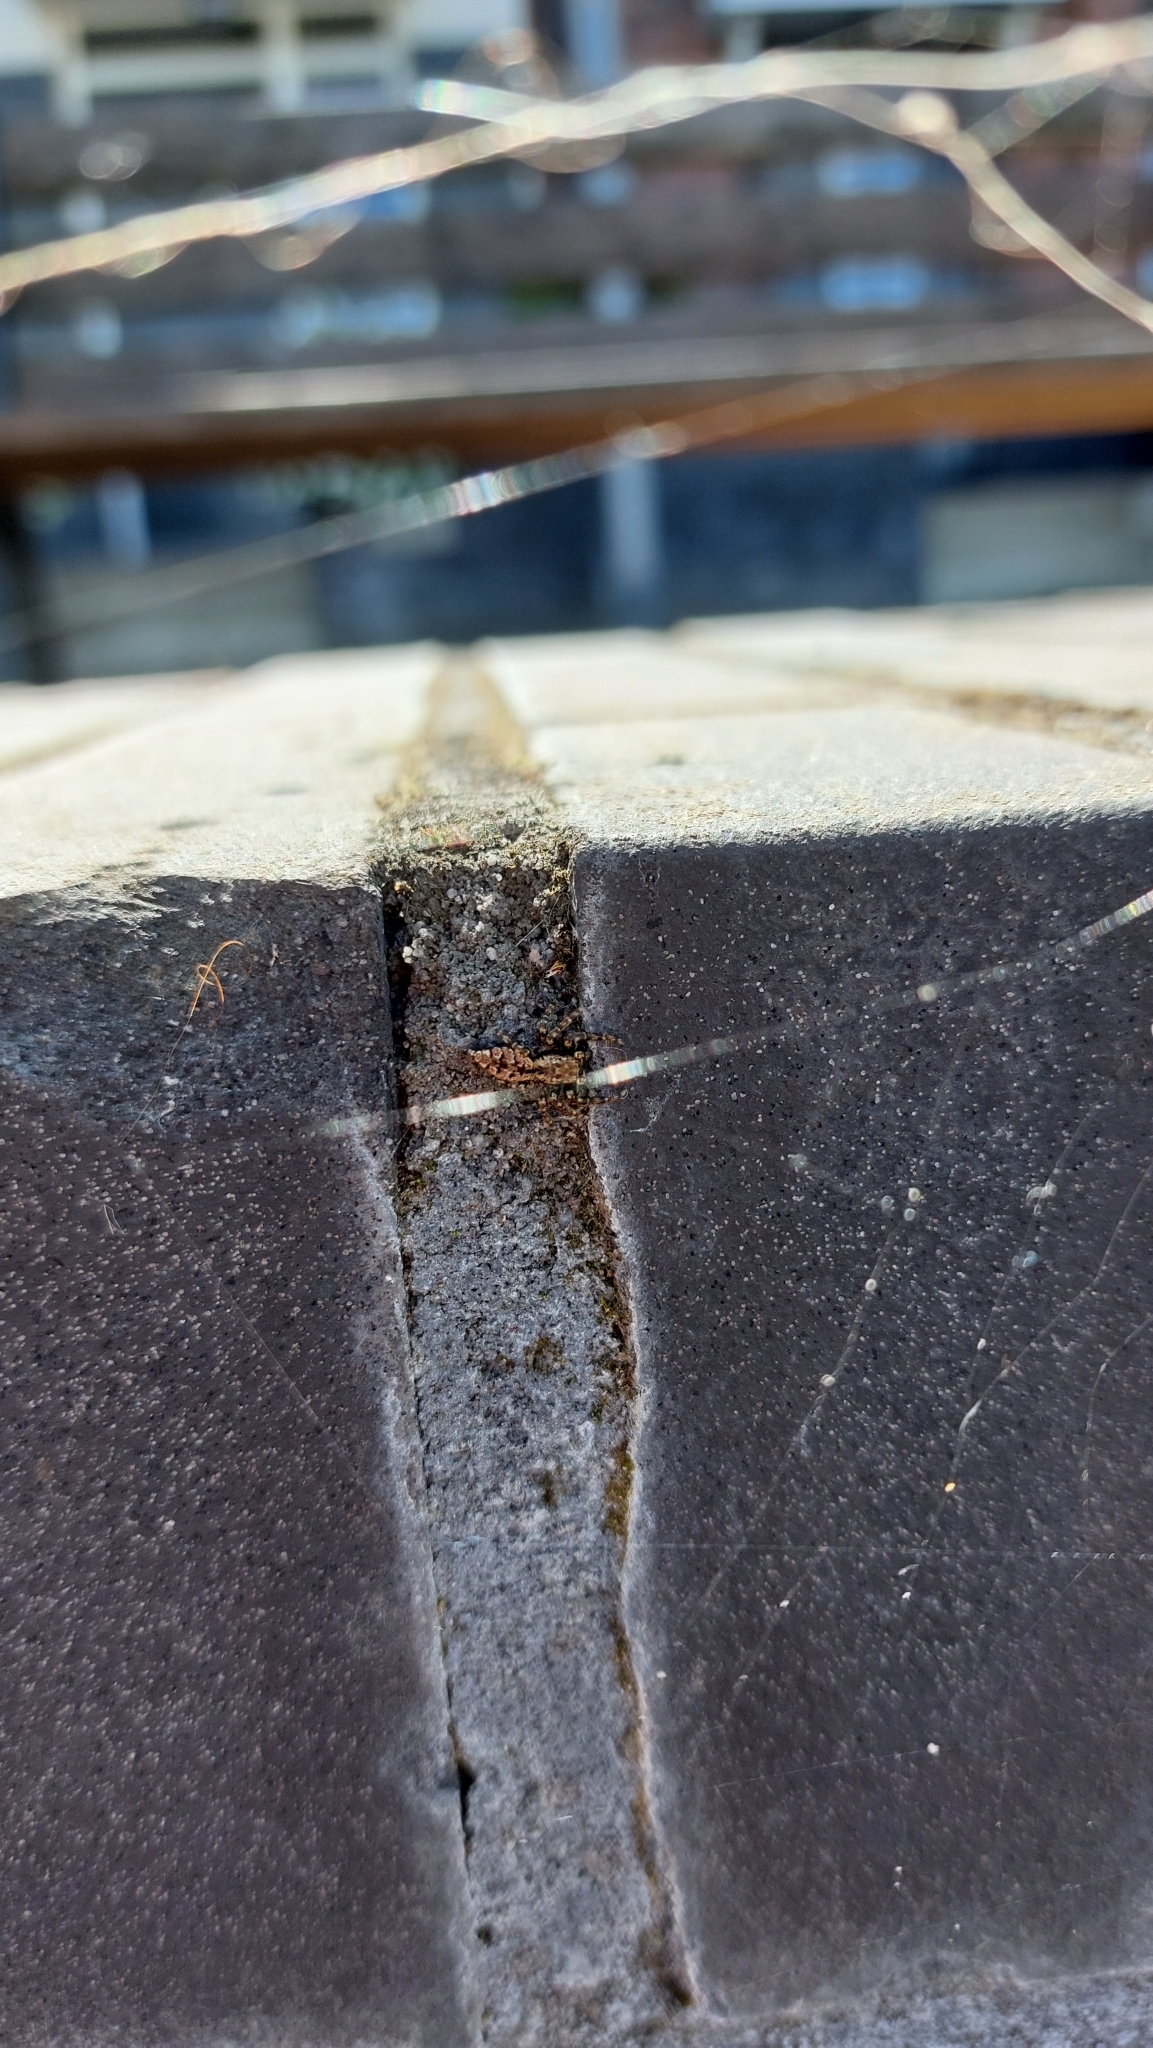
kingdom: Animalia
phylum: Arthropoda
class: Arachnida
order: Araneae
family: Salticidae
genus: Marpissa
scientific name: Marpissa muscosa
